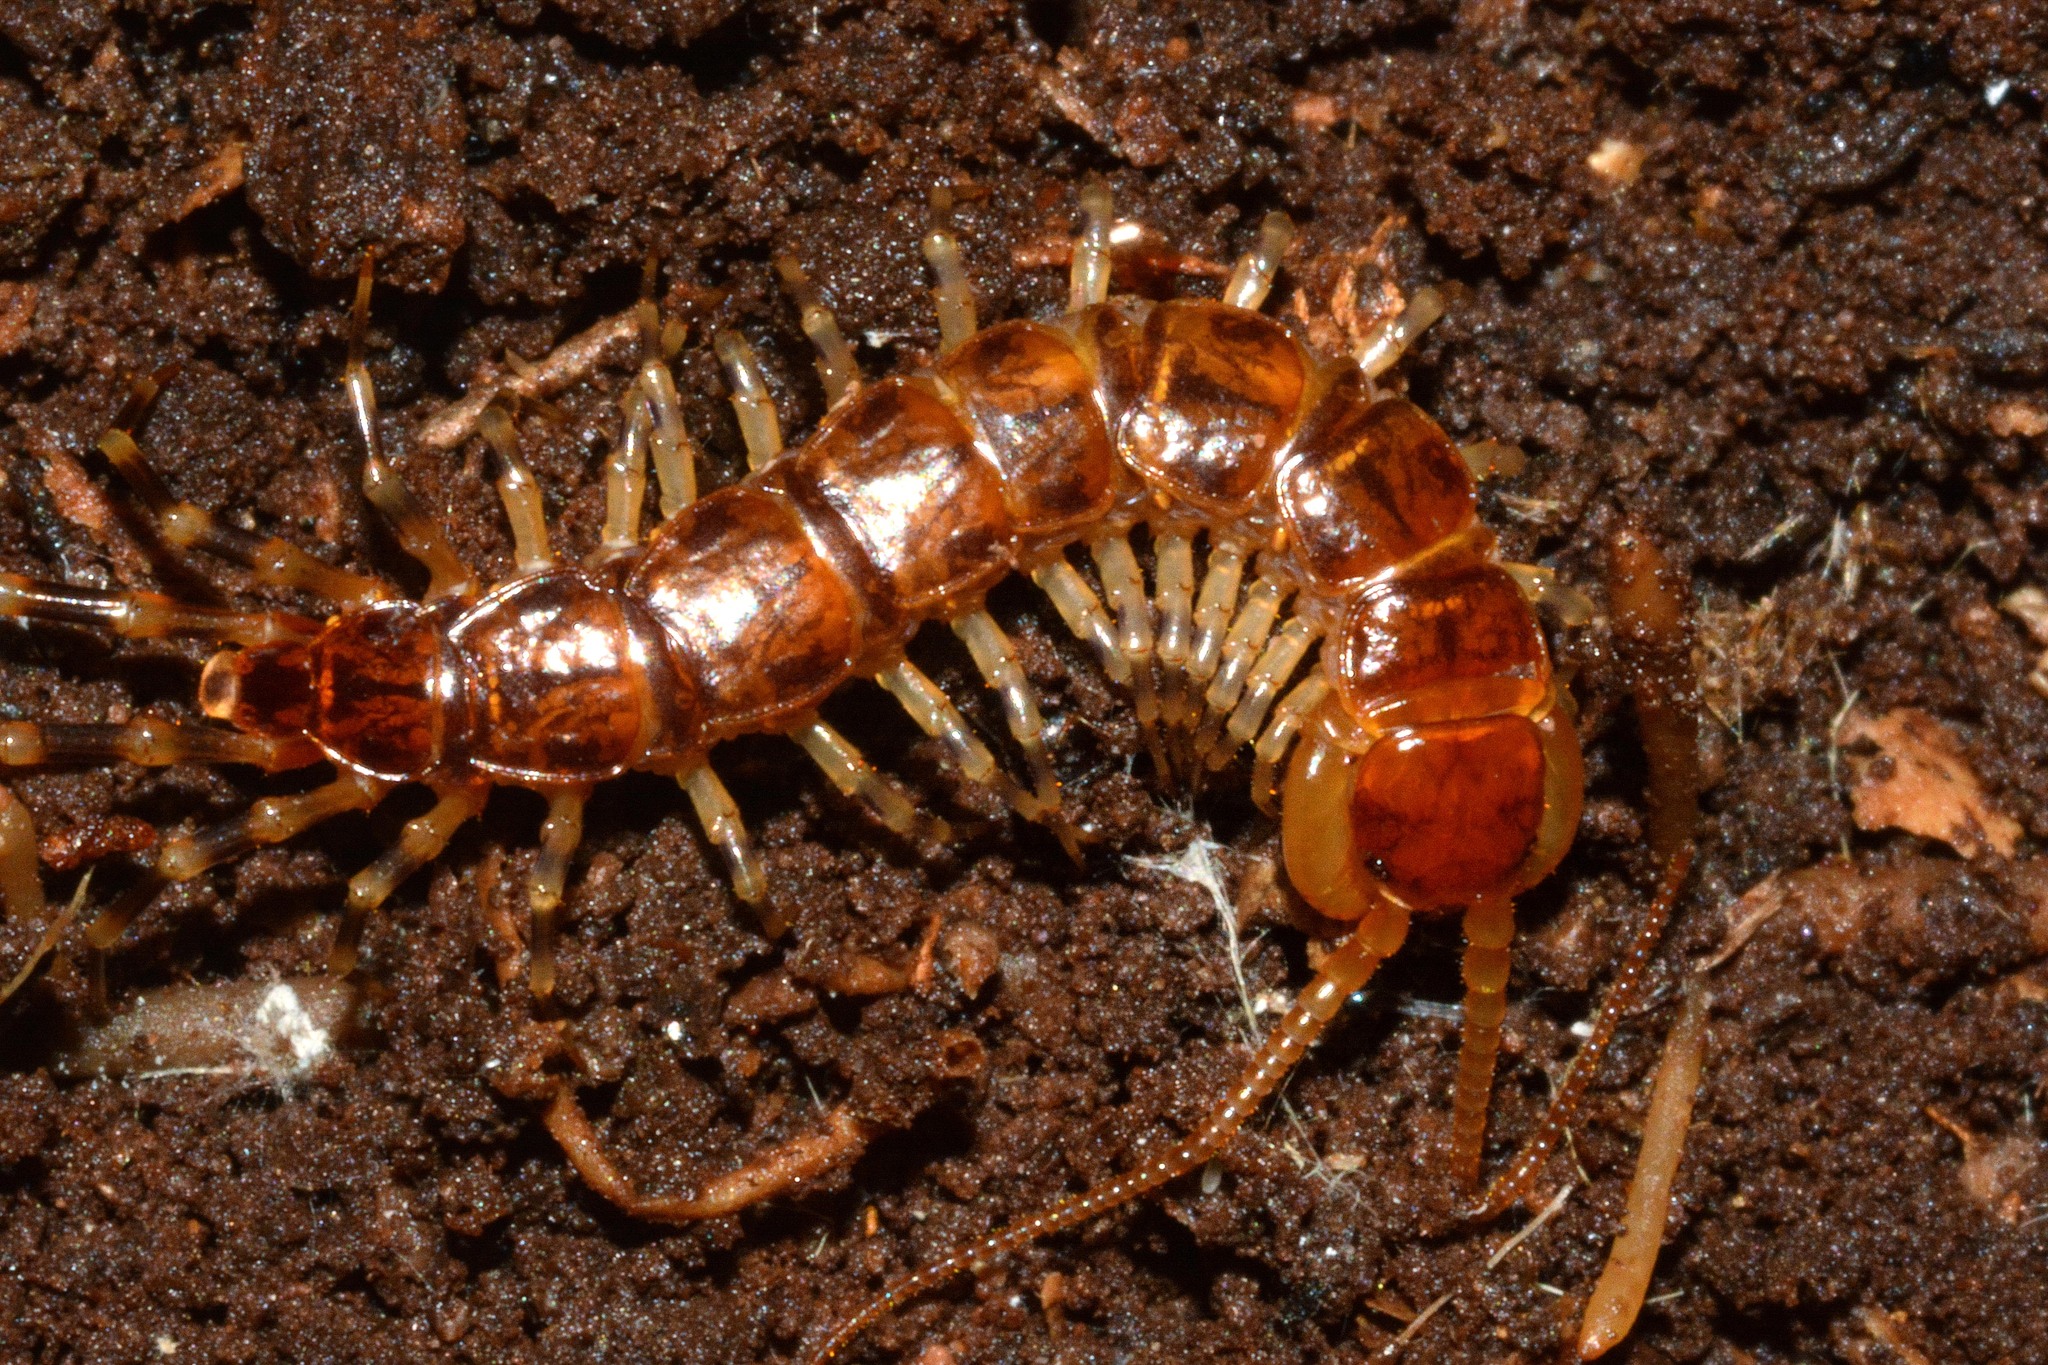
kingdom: Animalia
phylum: Arthropoda
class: Chilopoda
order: Lithobiomorpha
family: Lithobiidae
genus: Lithobius
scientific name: Lithobius variegatus
